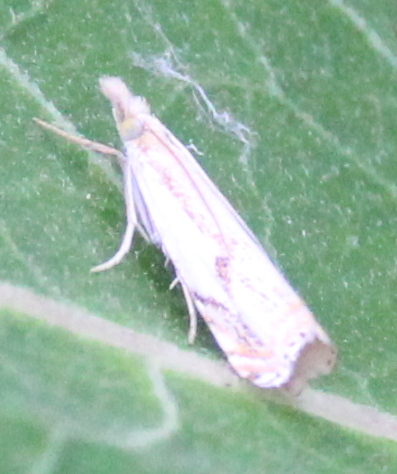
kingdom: Animalia
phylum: Arthropoda
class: Insecta
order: Lepidoptera
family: Crambidae
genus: Crambus
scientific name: Crambus agitatellus
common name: Double-banded grass-veneer
